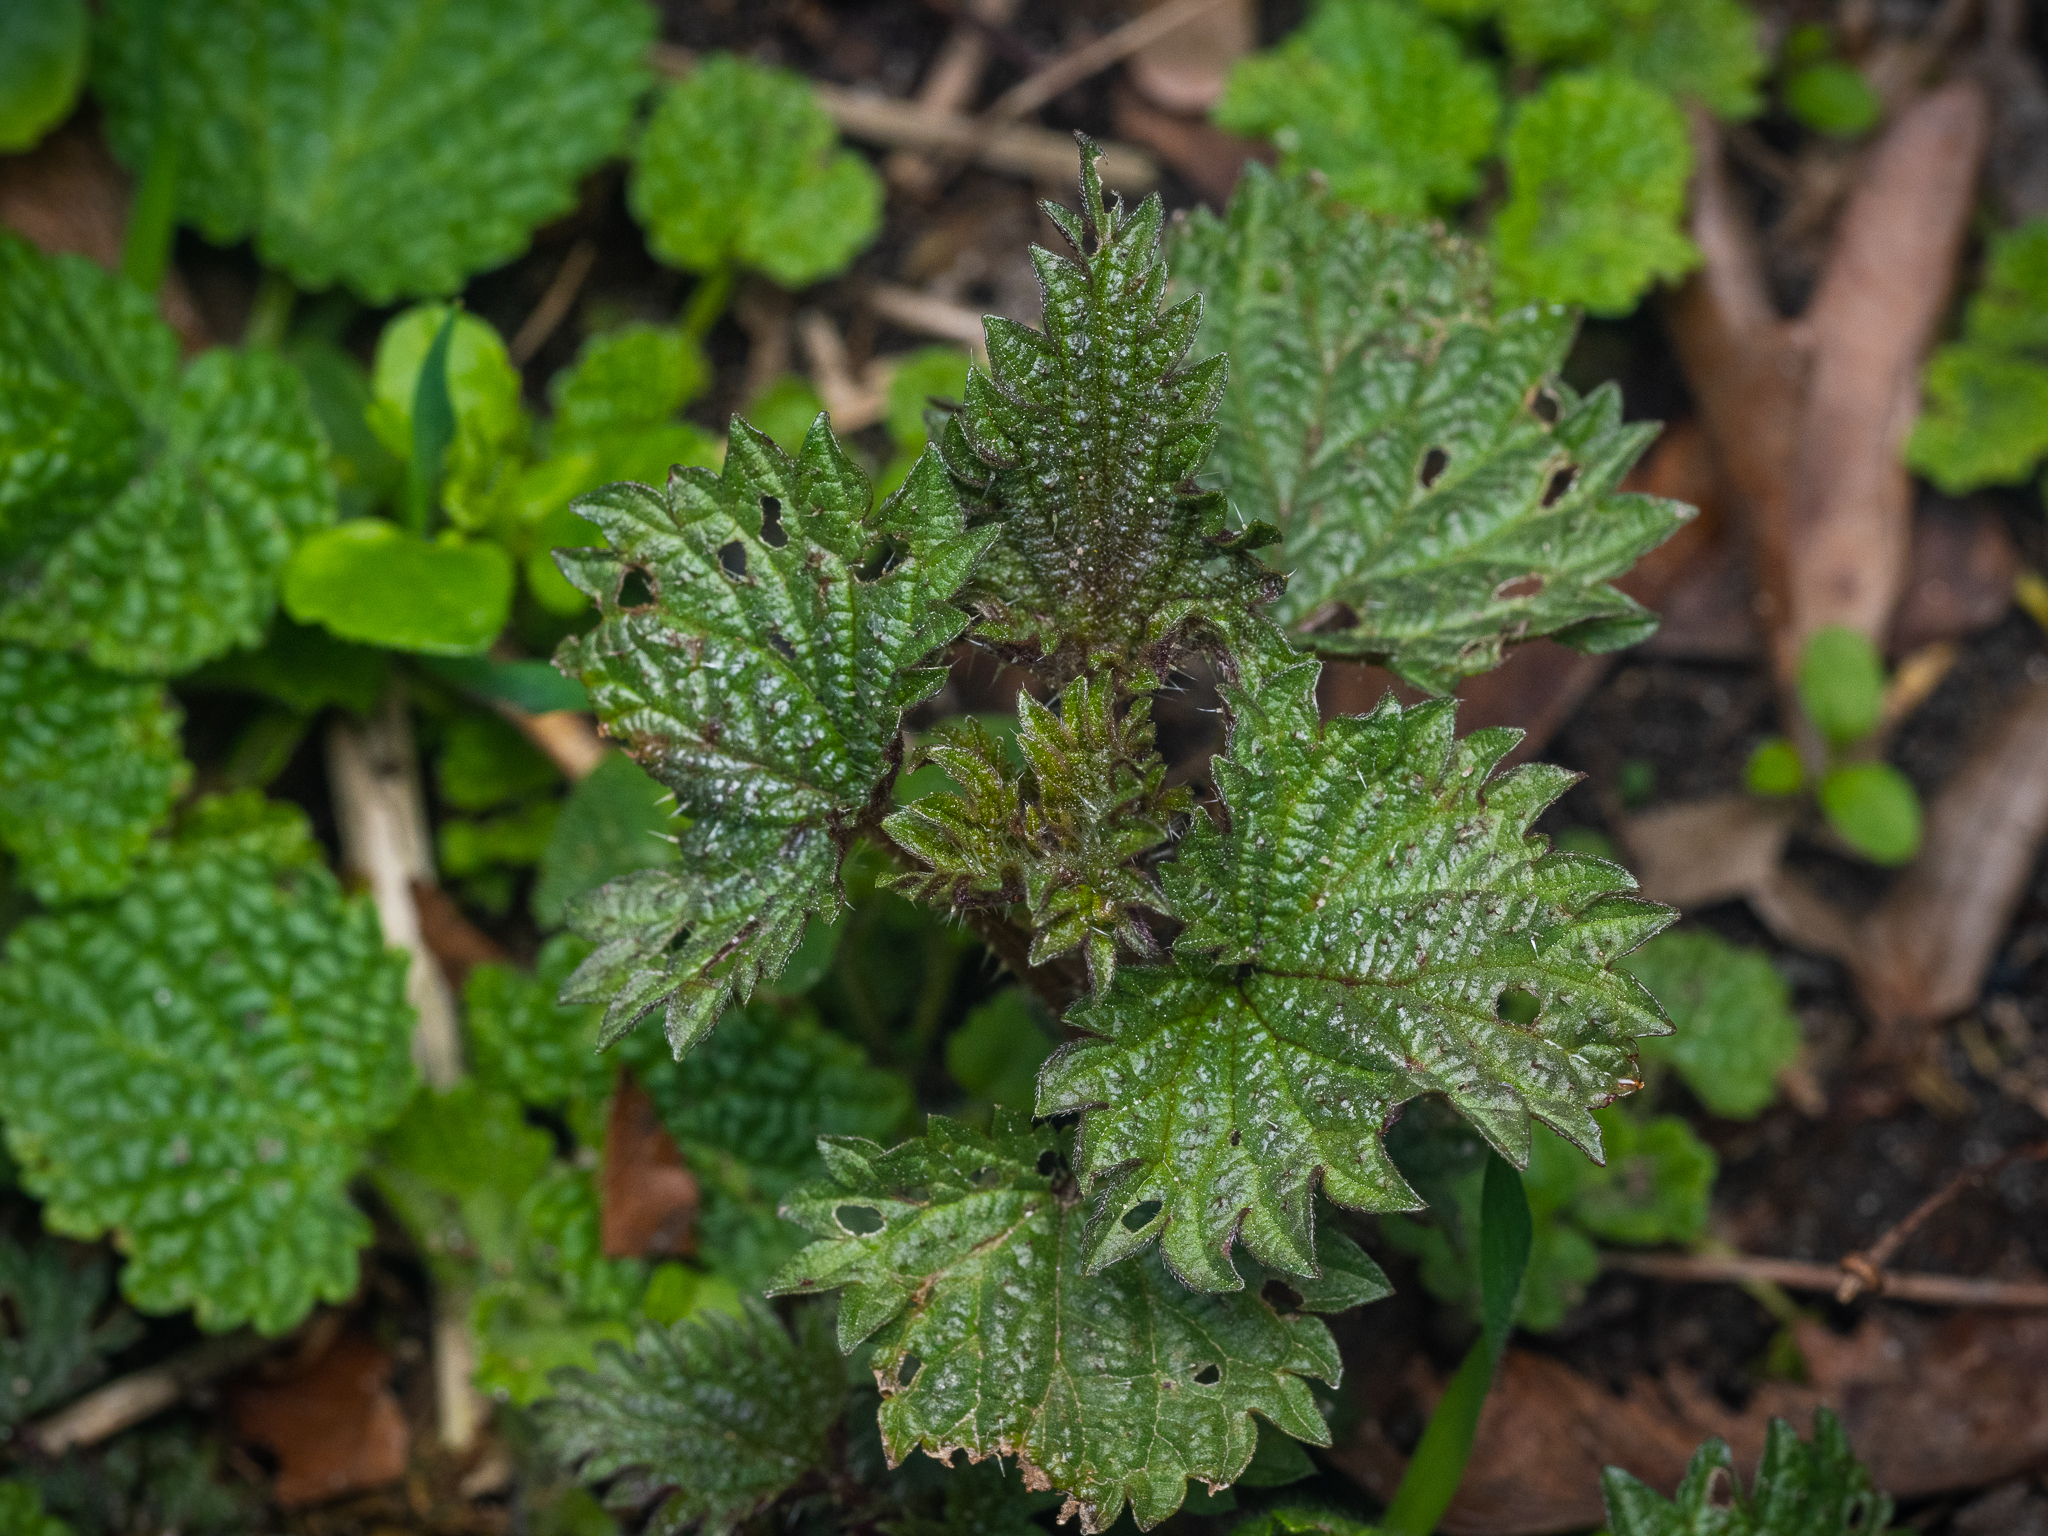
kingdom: Plantae
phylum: Tracheophyta
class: Magnoliopsida
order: Rosales
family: Urticaceae
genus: Urtica
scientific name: Urtica dioica
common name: Common nettle
